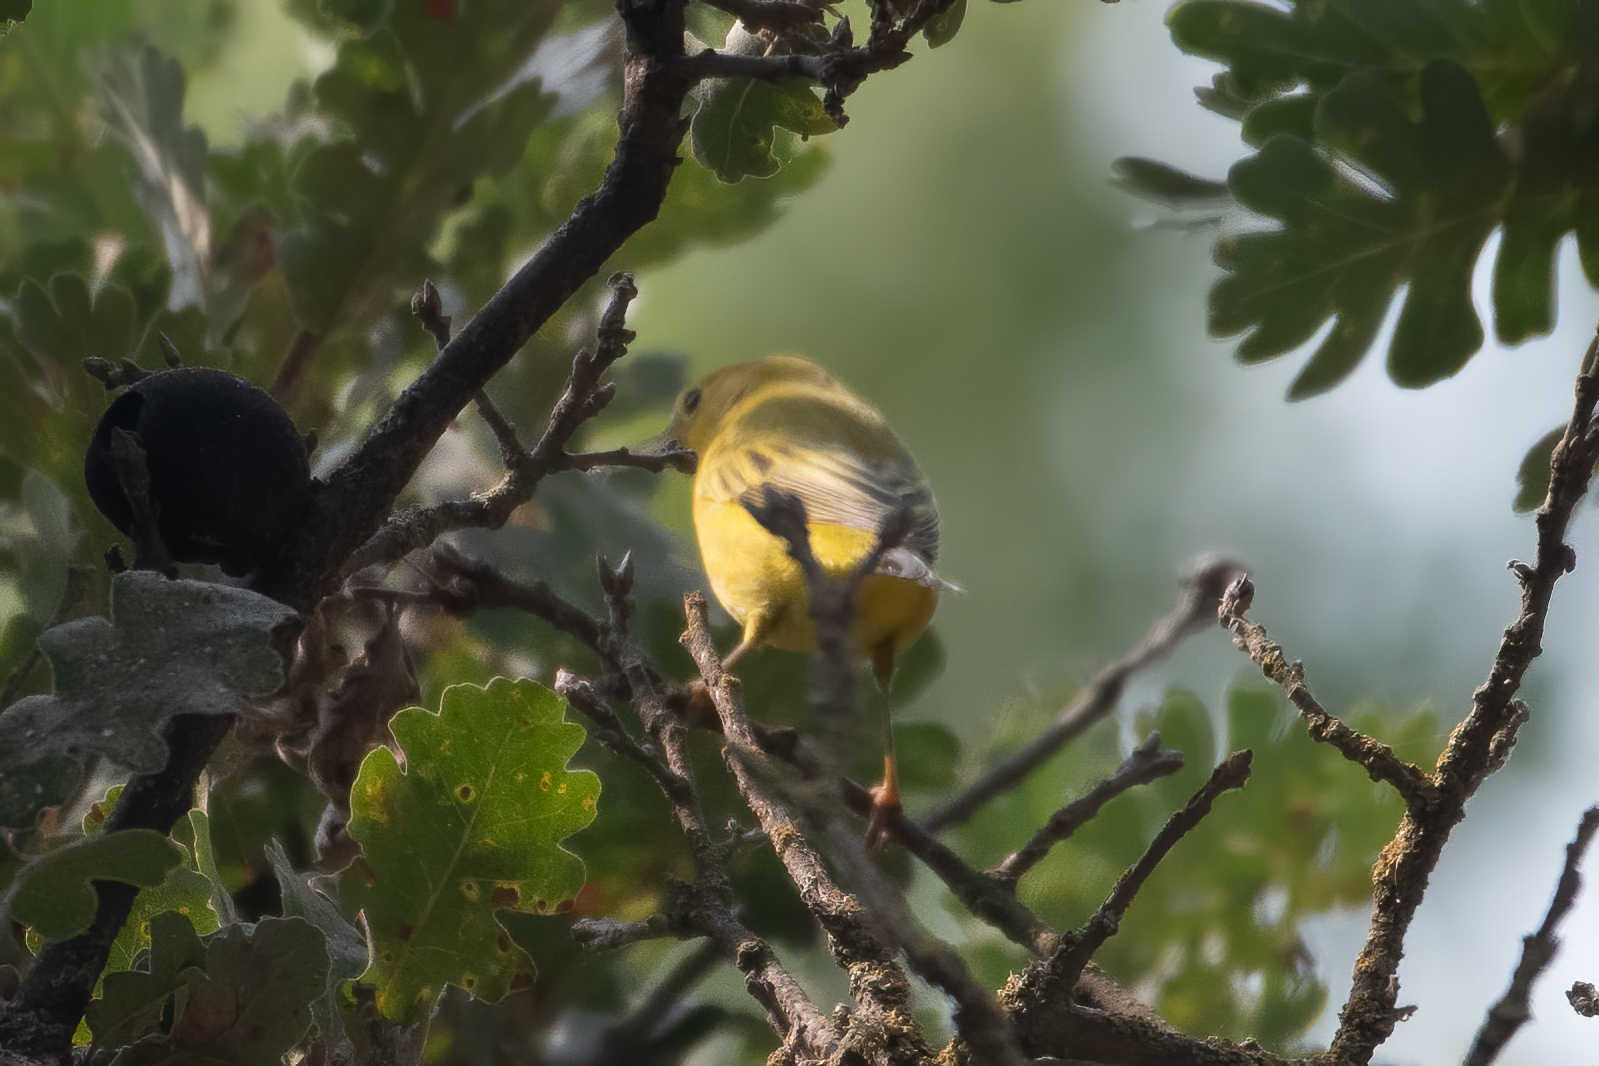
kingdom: Animalia
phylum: Chordata
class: Aves
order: Passeriformes
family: Parulidae
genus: Setophaga
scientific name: Setophaga petechia
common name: Yellow warbler
